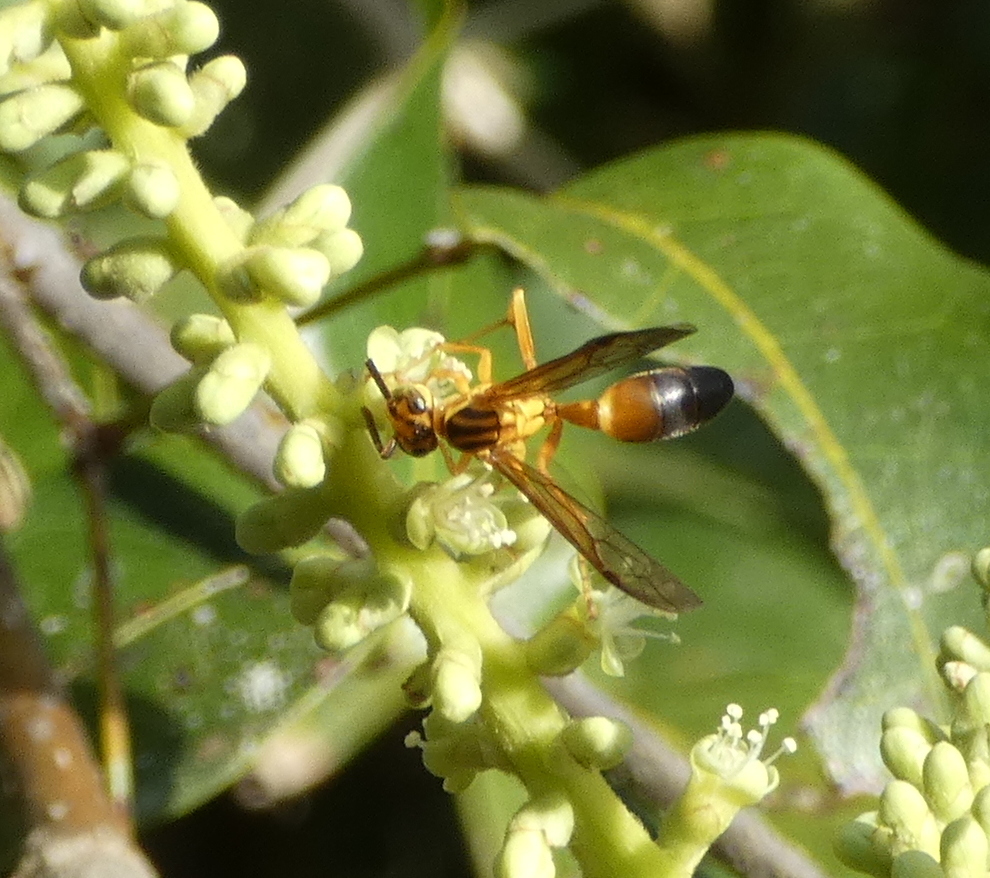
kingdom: Animalia
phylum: Arthropoda
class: Insecta
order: Hymenoptera
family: Vespidae
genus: Agelaia
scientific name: Agelaia pallipes
